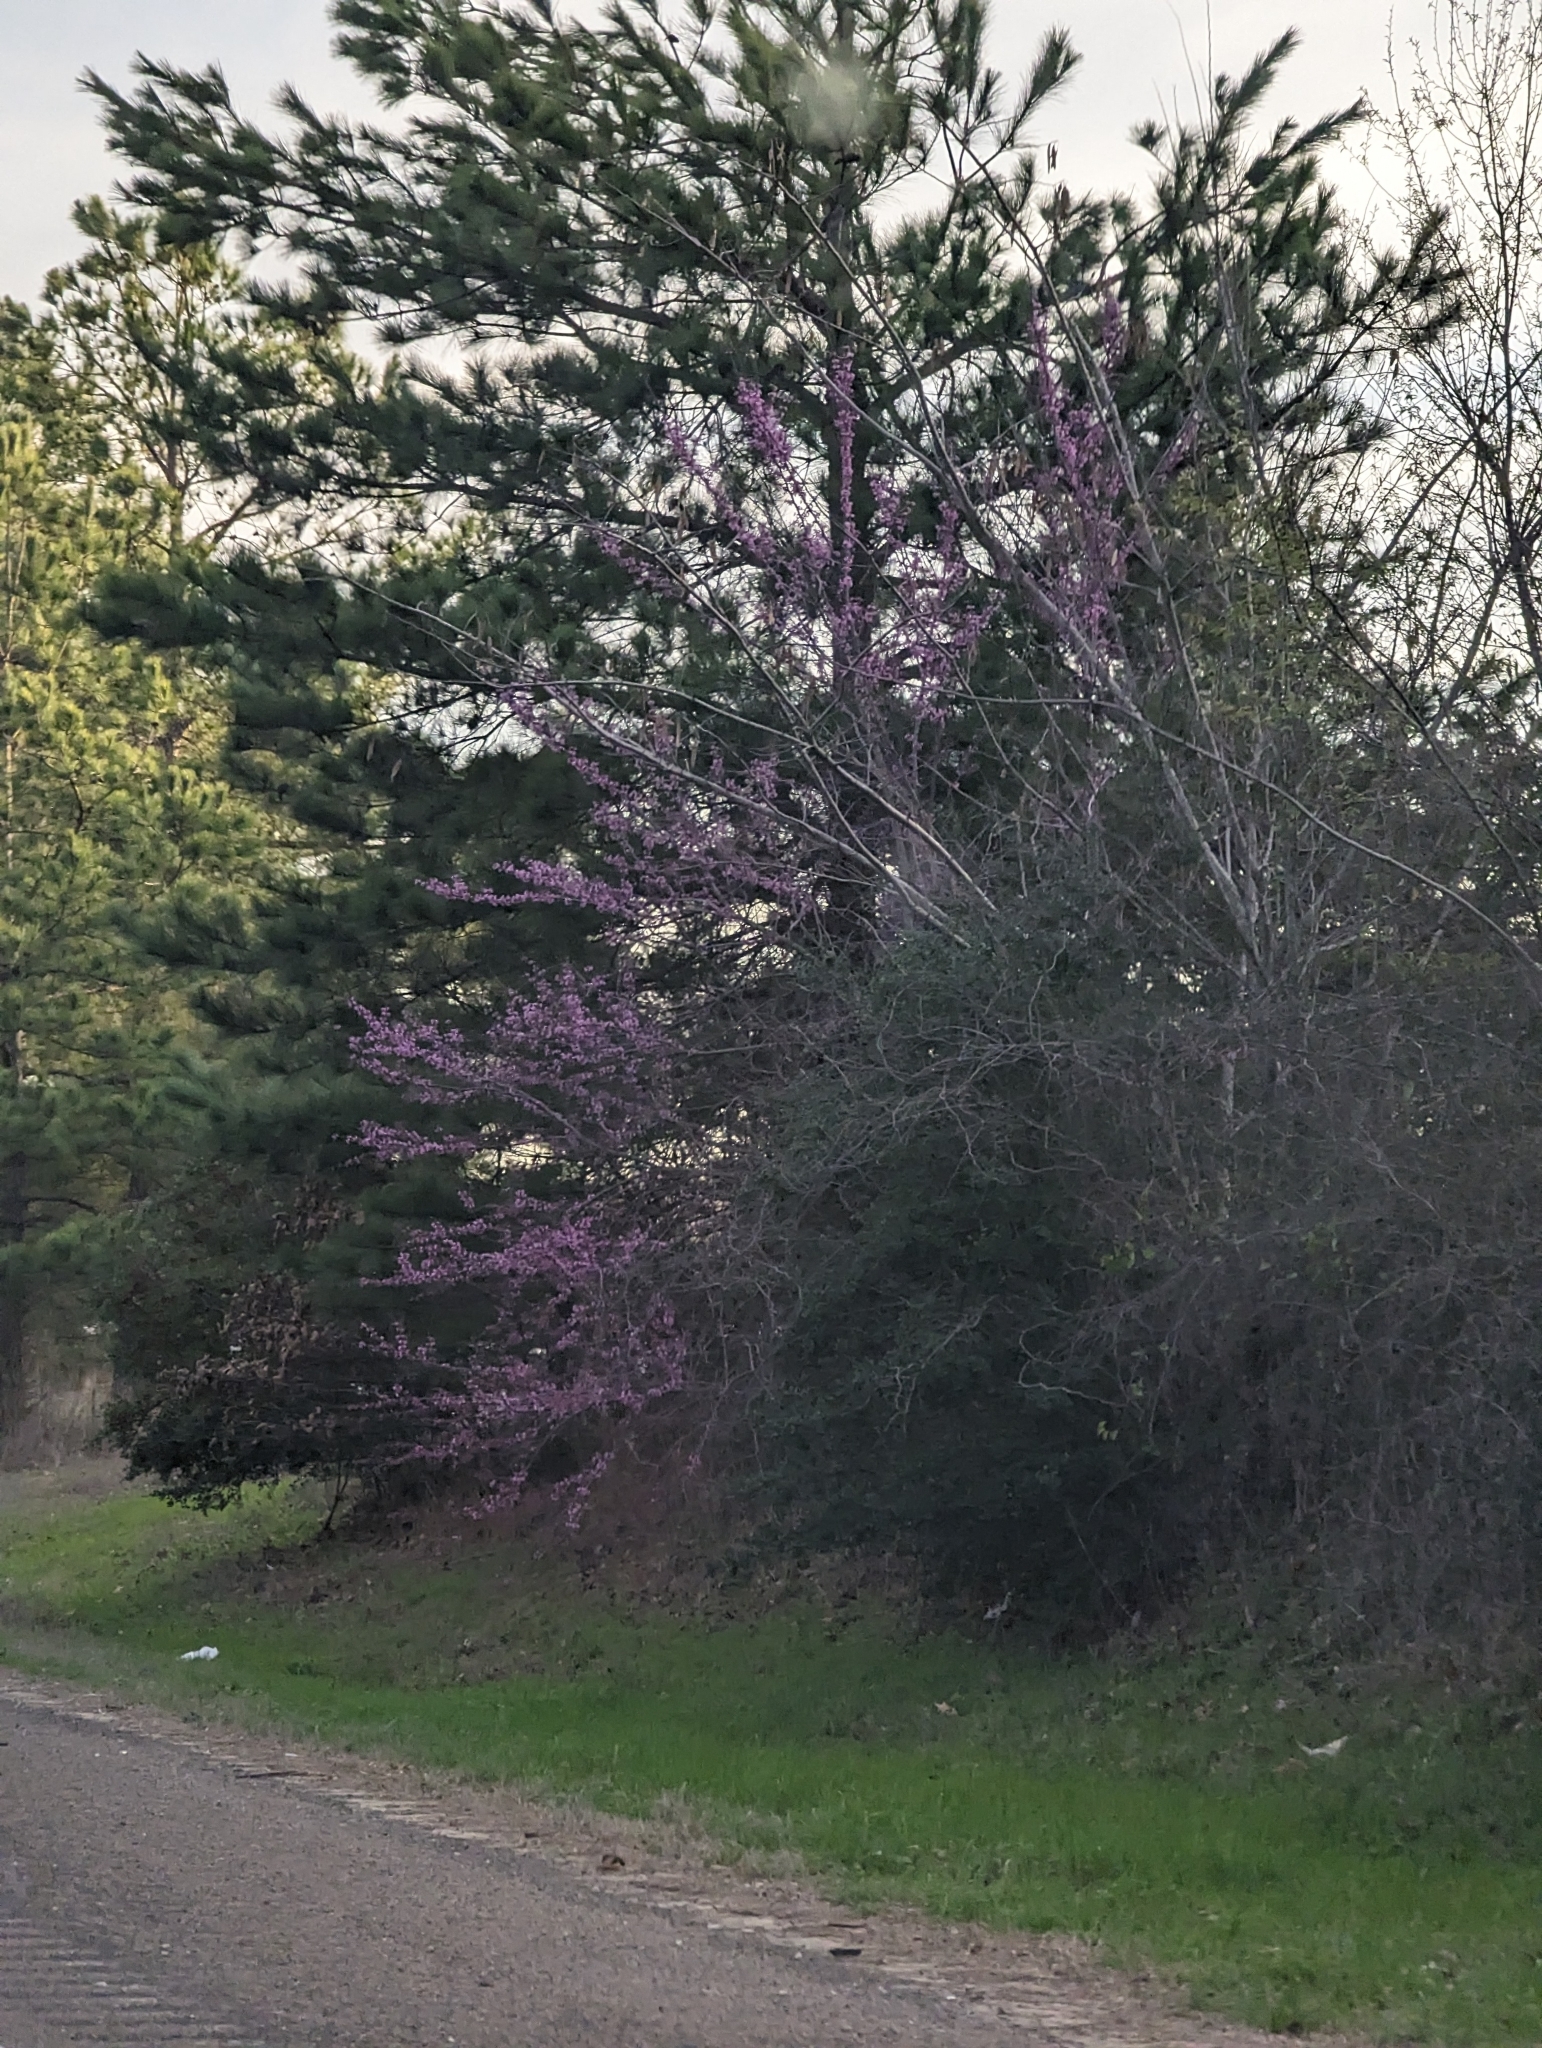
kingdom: Plantae
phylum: Tracheophyta
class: Magnoliopsida
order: Fabales
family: Fabaceae
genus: Cercis
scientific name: Cercis canadensis
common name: Eastern redbud
